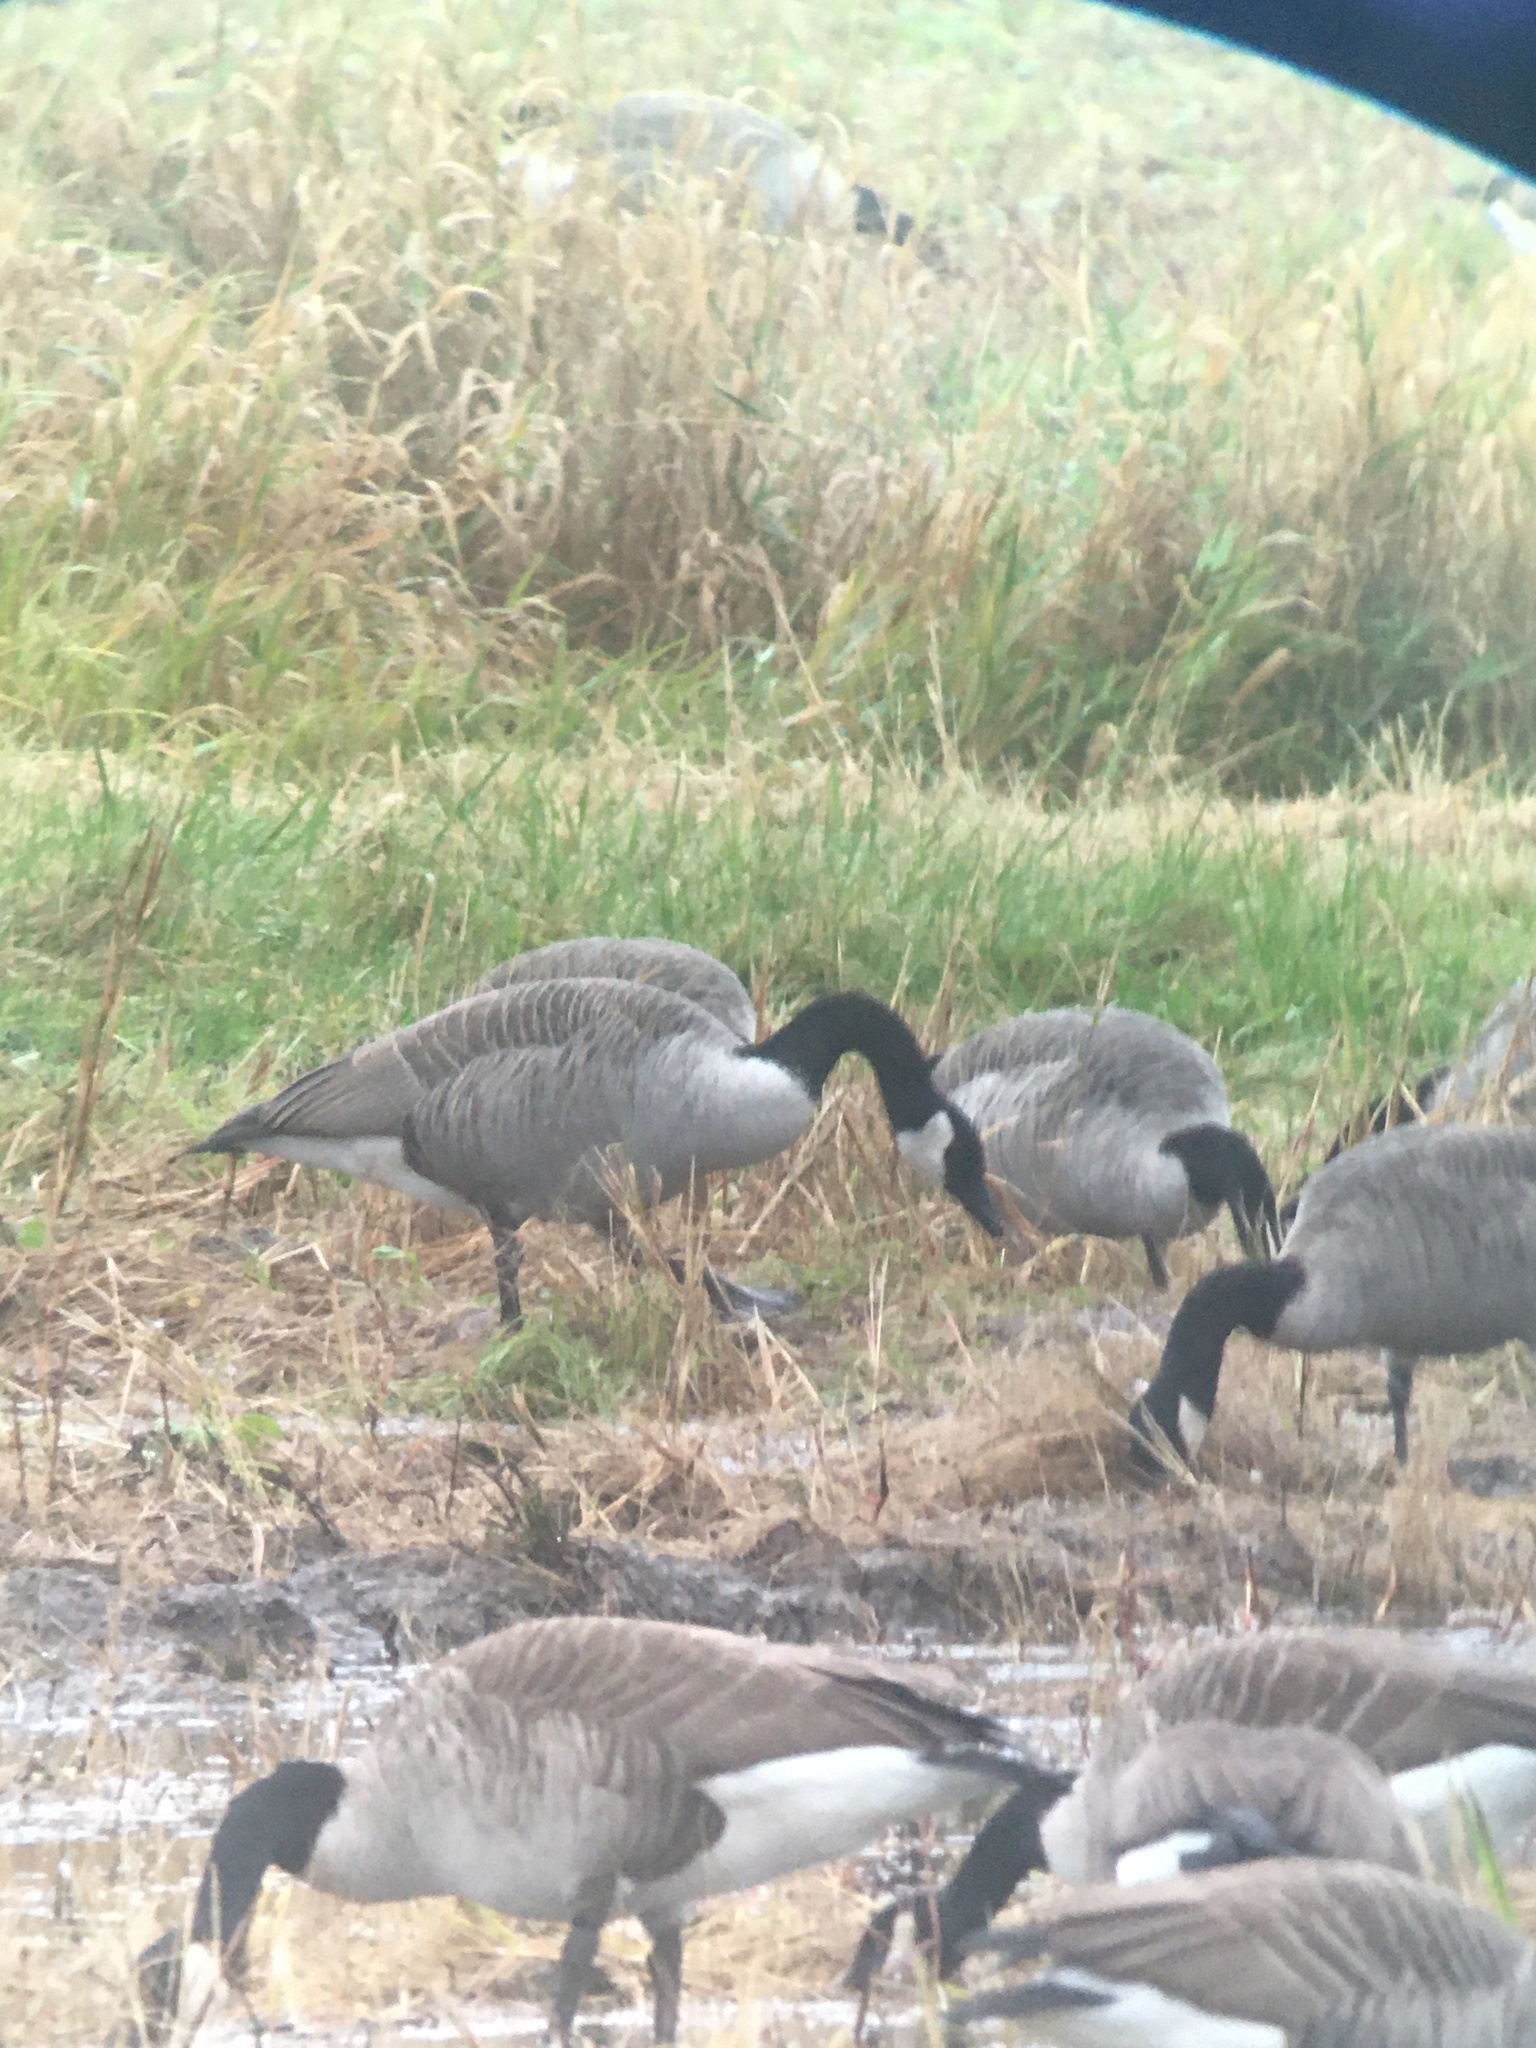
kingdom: Animalia
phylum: Chordata
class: Aves
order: Anseriformes
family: Anatidae
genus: Branta
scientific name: Branta canadensis
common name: Canada goose
